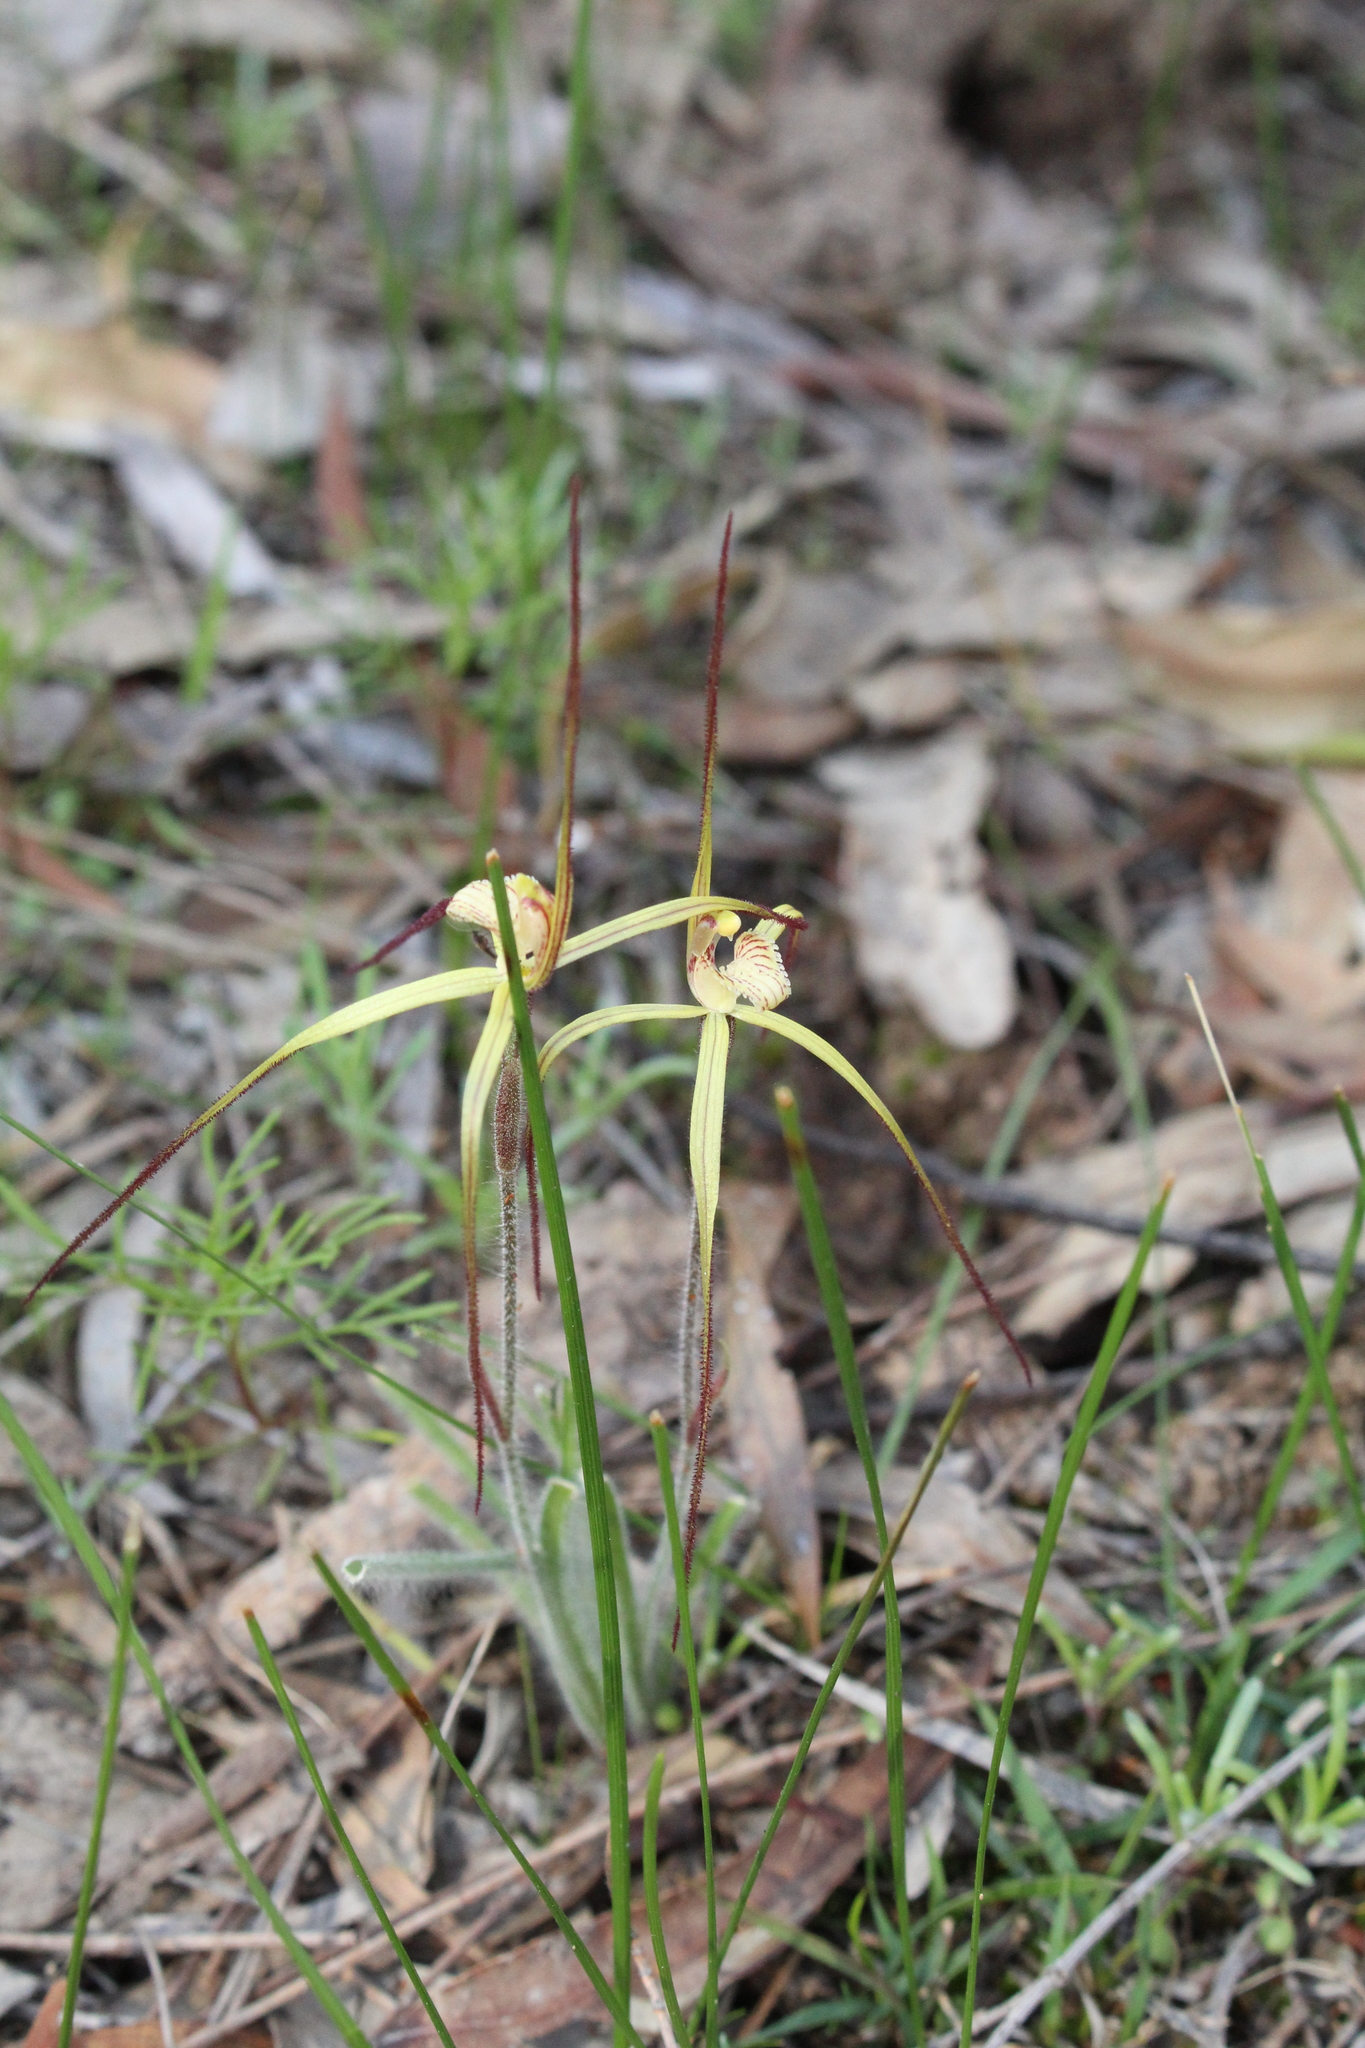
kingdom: Plantae
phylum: Tracheophyta
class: Liliopsida
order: Asparagales
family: Orchidaceae
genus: Caladenia
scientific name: Caladenia xantha
